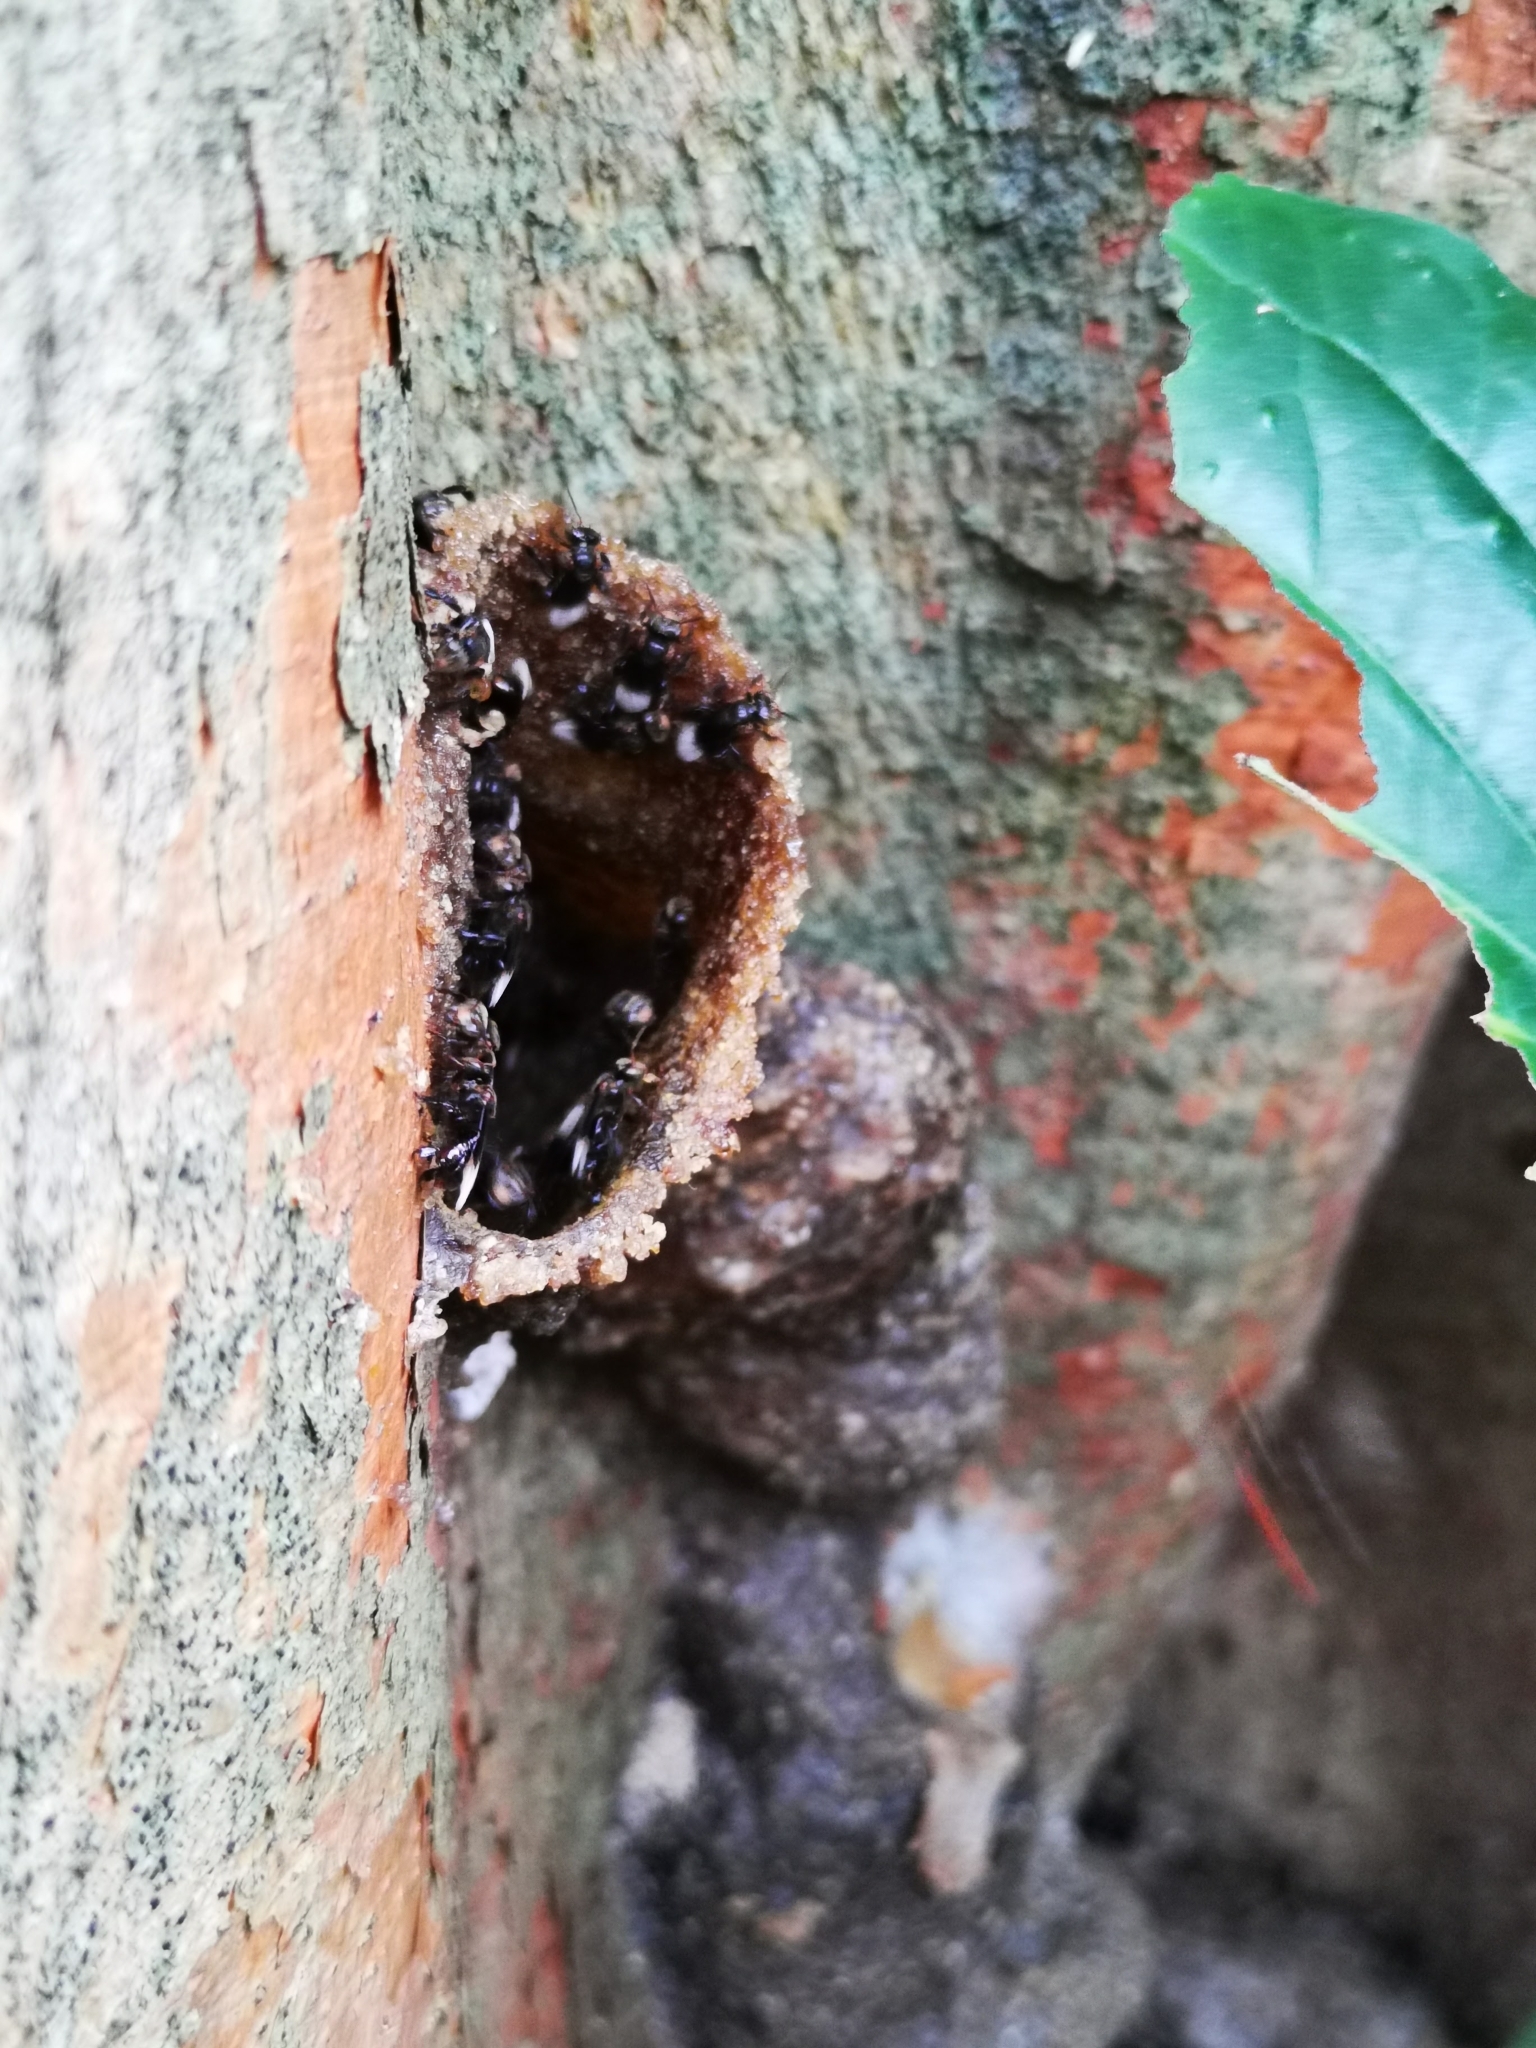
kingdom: Animalia
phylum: Arthropoda
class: Insecta
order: Hymenoptera
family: Apidae
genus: Homotrigona
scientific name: Homotrigona apicalis
